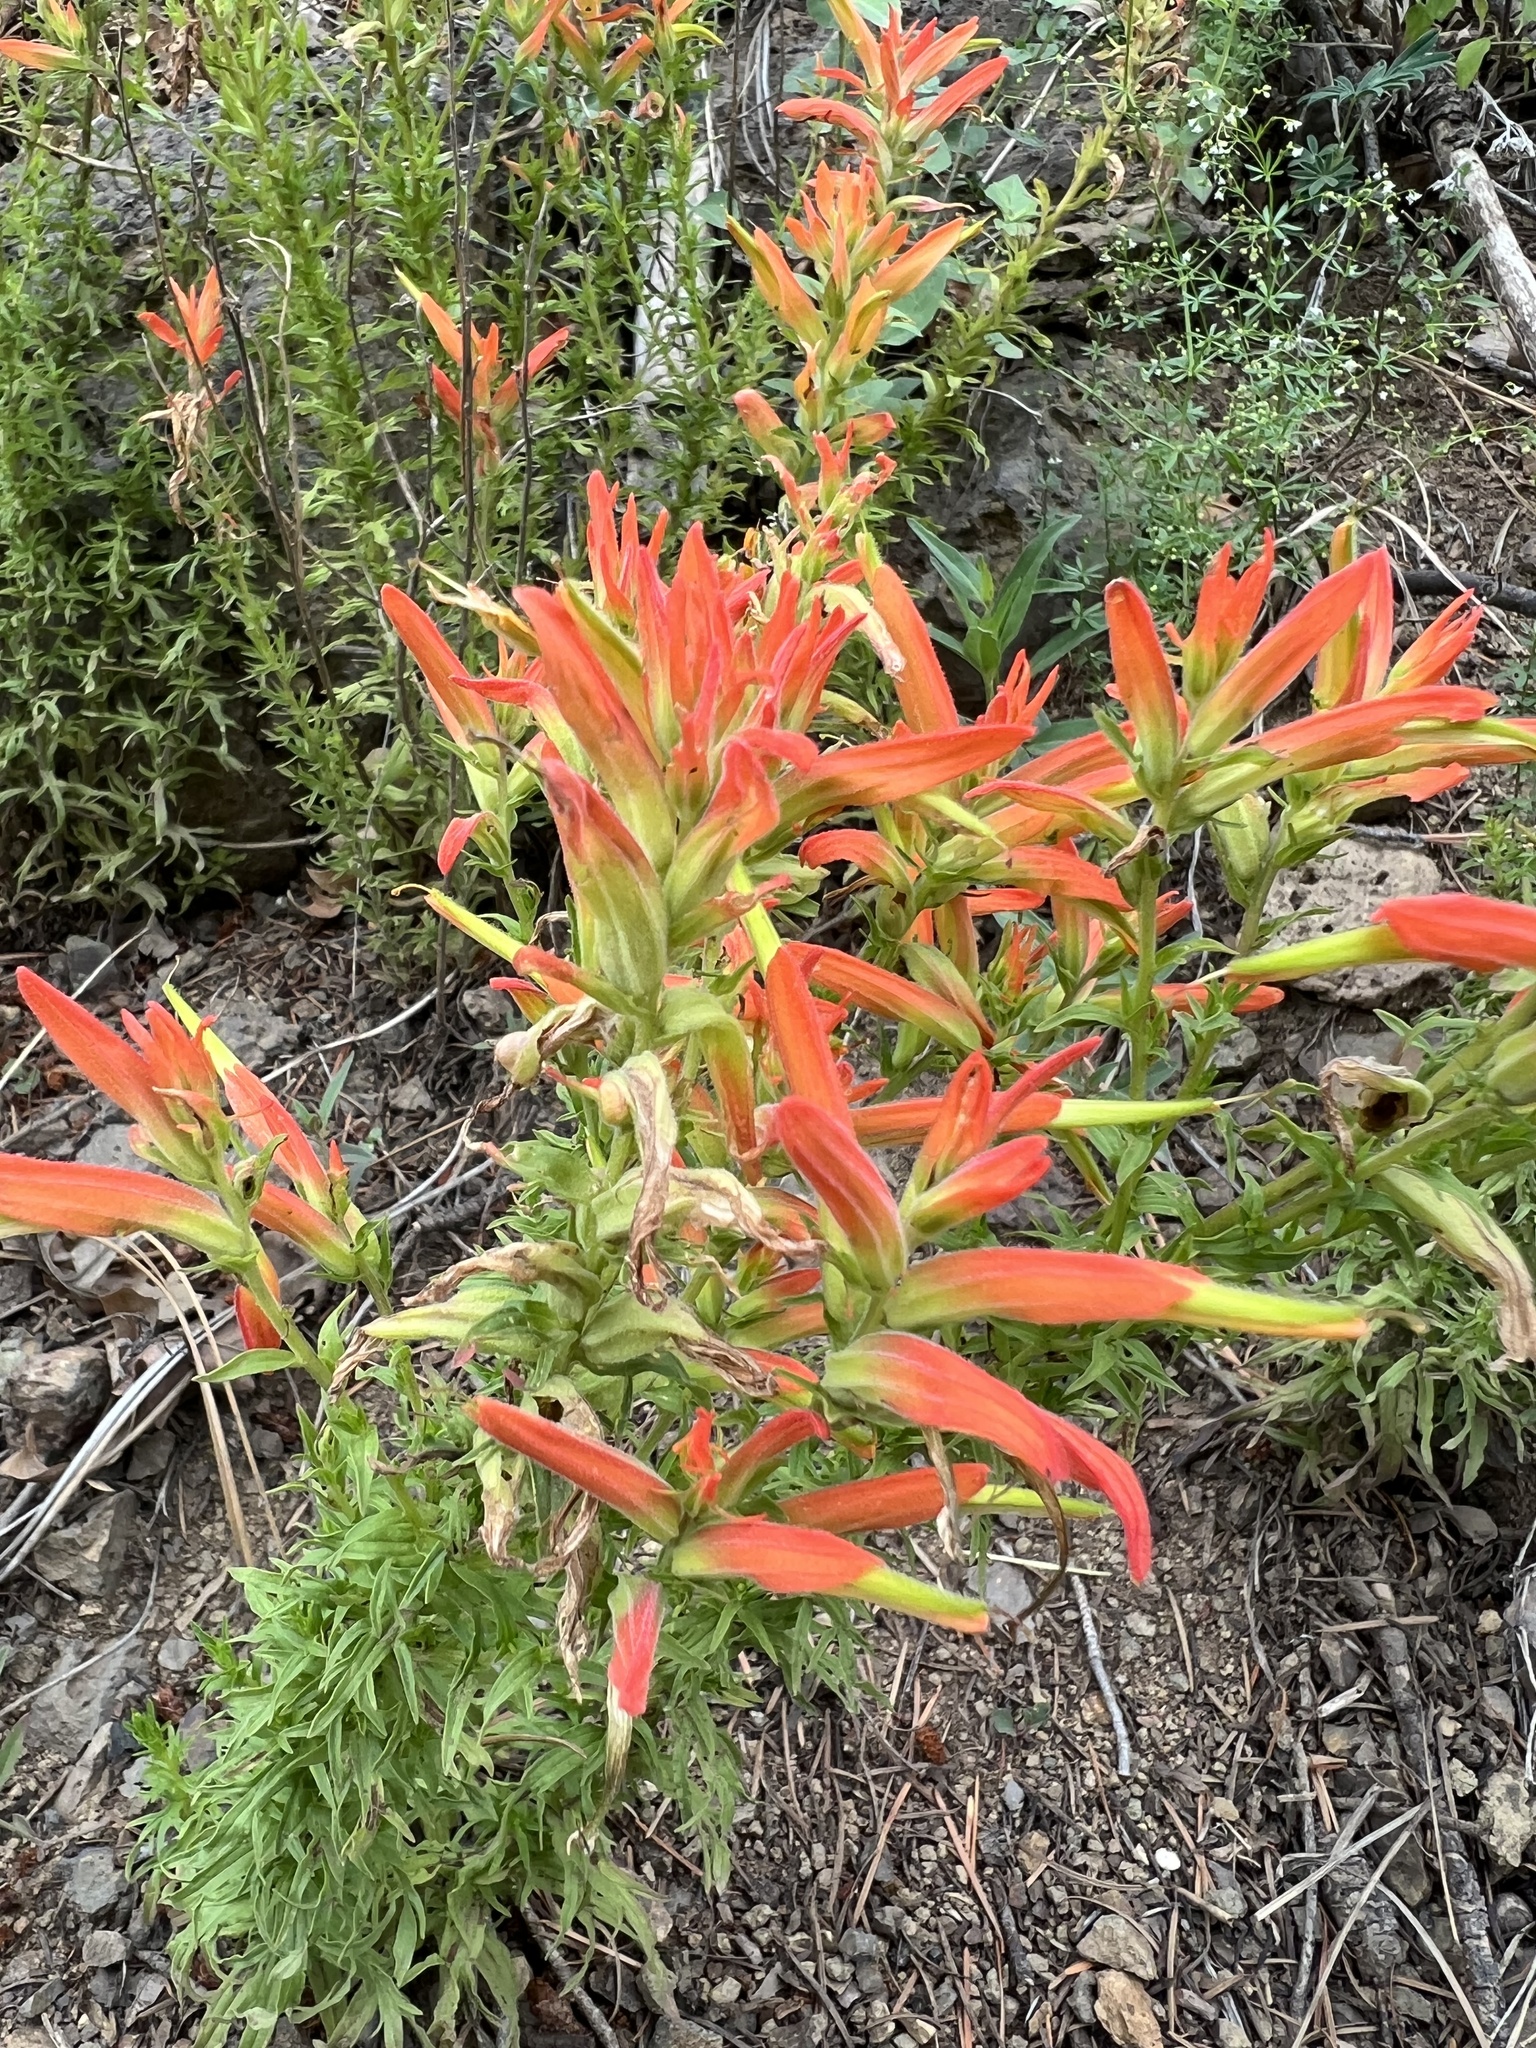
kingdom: Plantae
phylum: Tracheophyta
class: Magnoliopsida
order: Lamiales
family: Orobanchaceae
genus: Castilleja
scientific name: Castilleja patriotica
